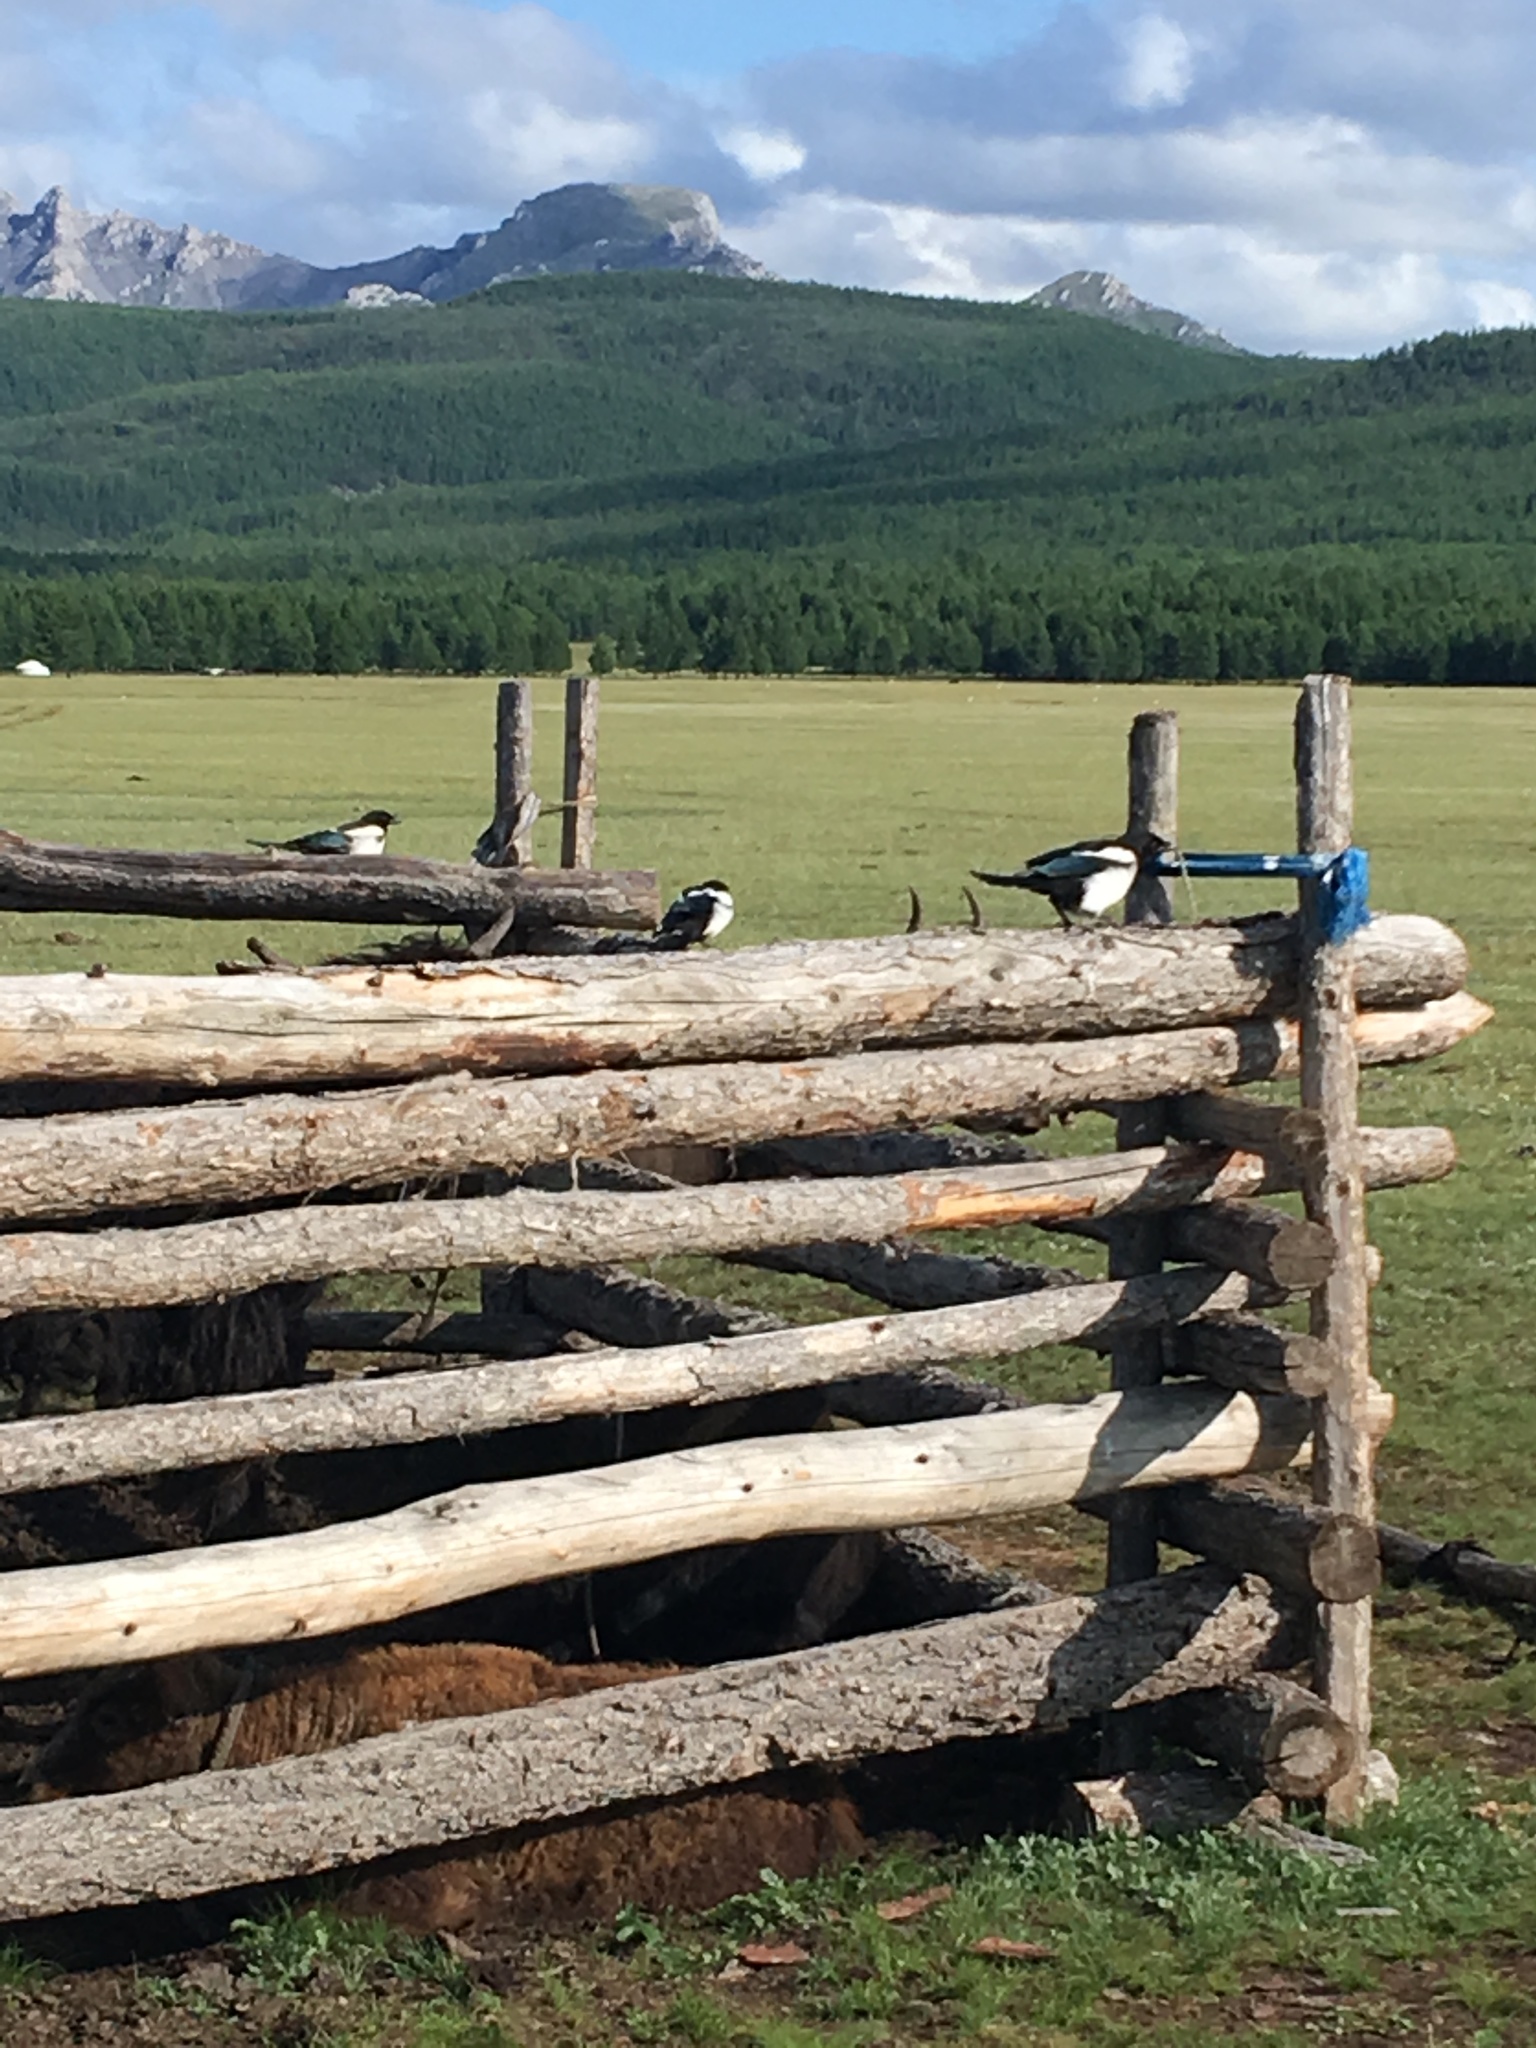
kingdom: Animalia
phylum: Chordata
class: Aves
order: Passeriformes
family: Corvidae
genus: Pica
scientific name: Pica pica
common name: Eurasian magpie
